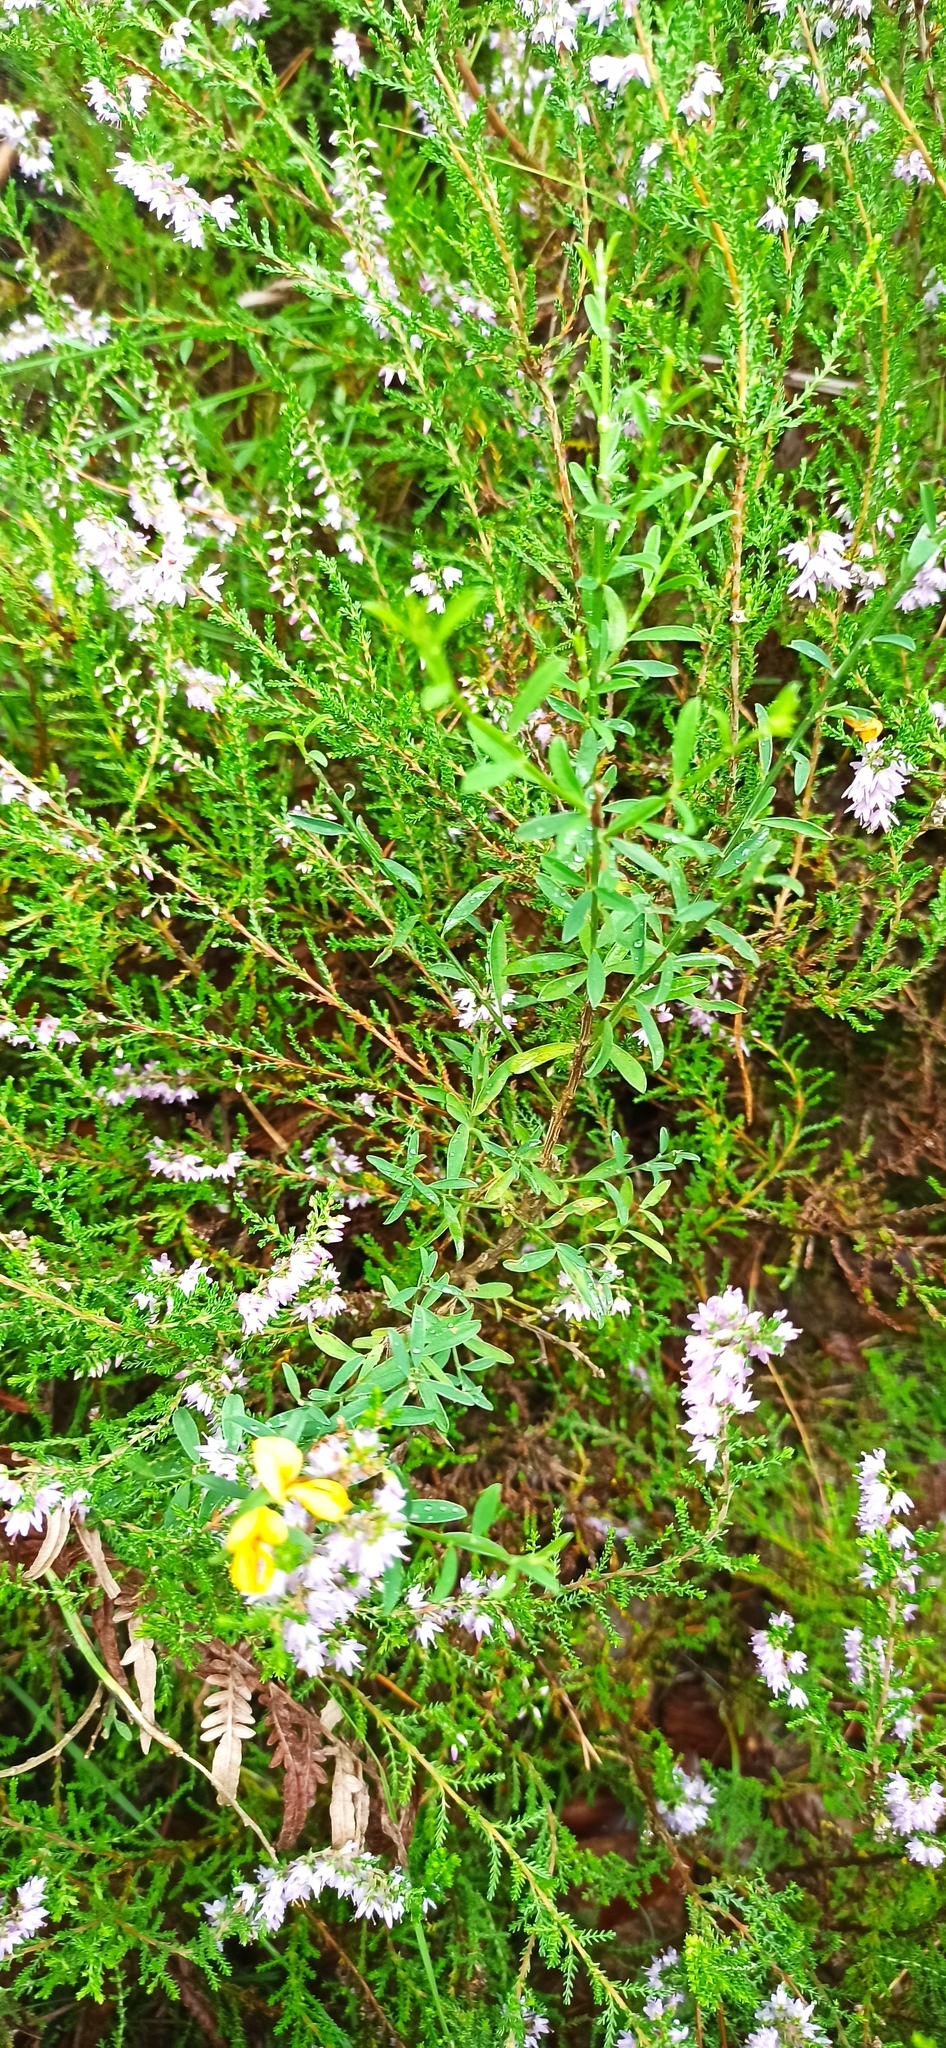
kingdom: Plantae
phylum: Tracheophyta
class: Magnoliopsida
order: Ericales
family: Ericaceae
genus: Calluna
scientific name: Calluna vulgaris
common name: Heather
